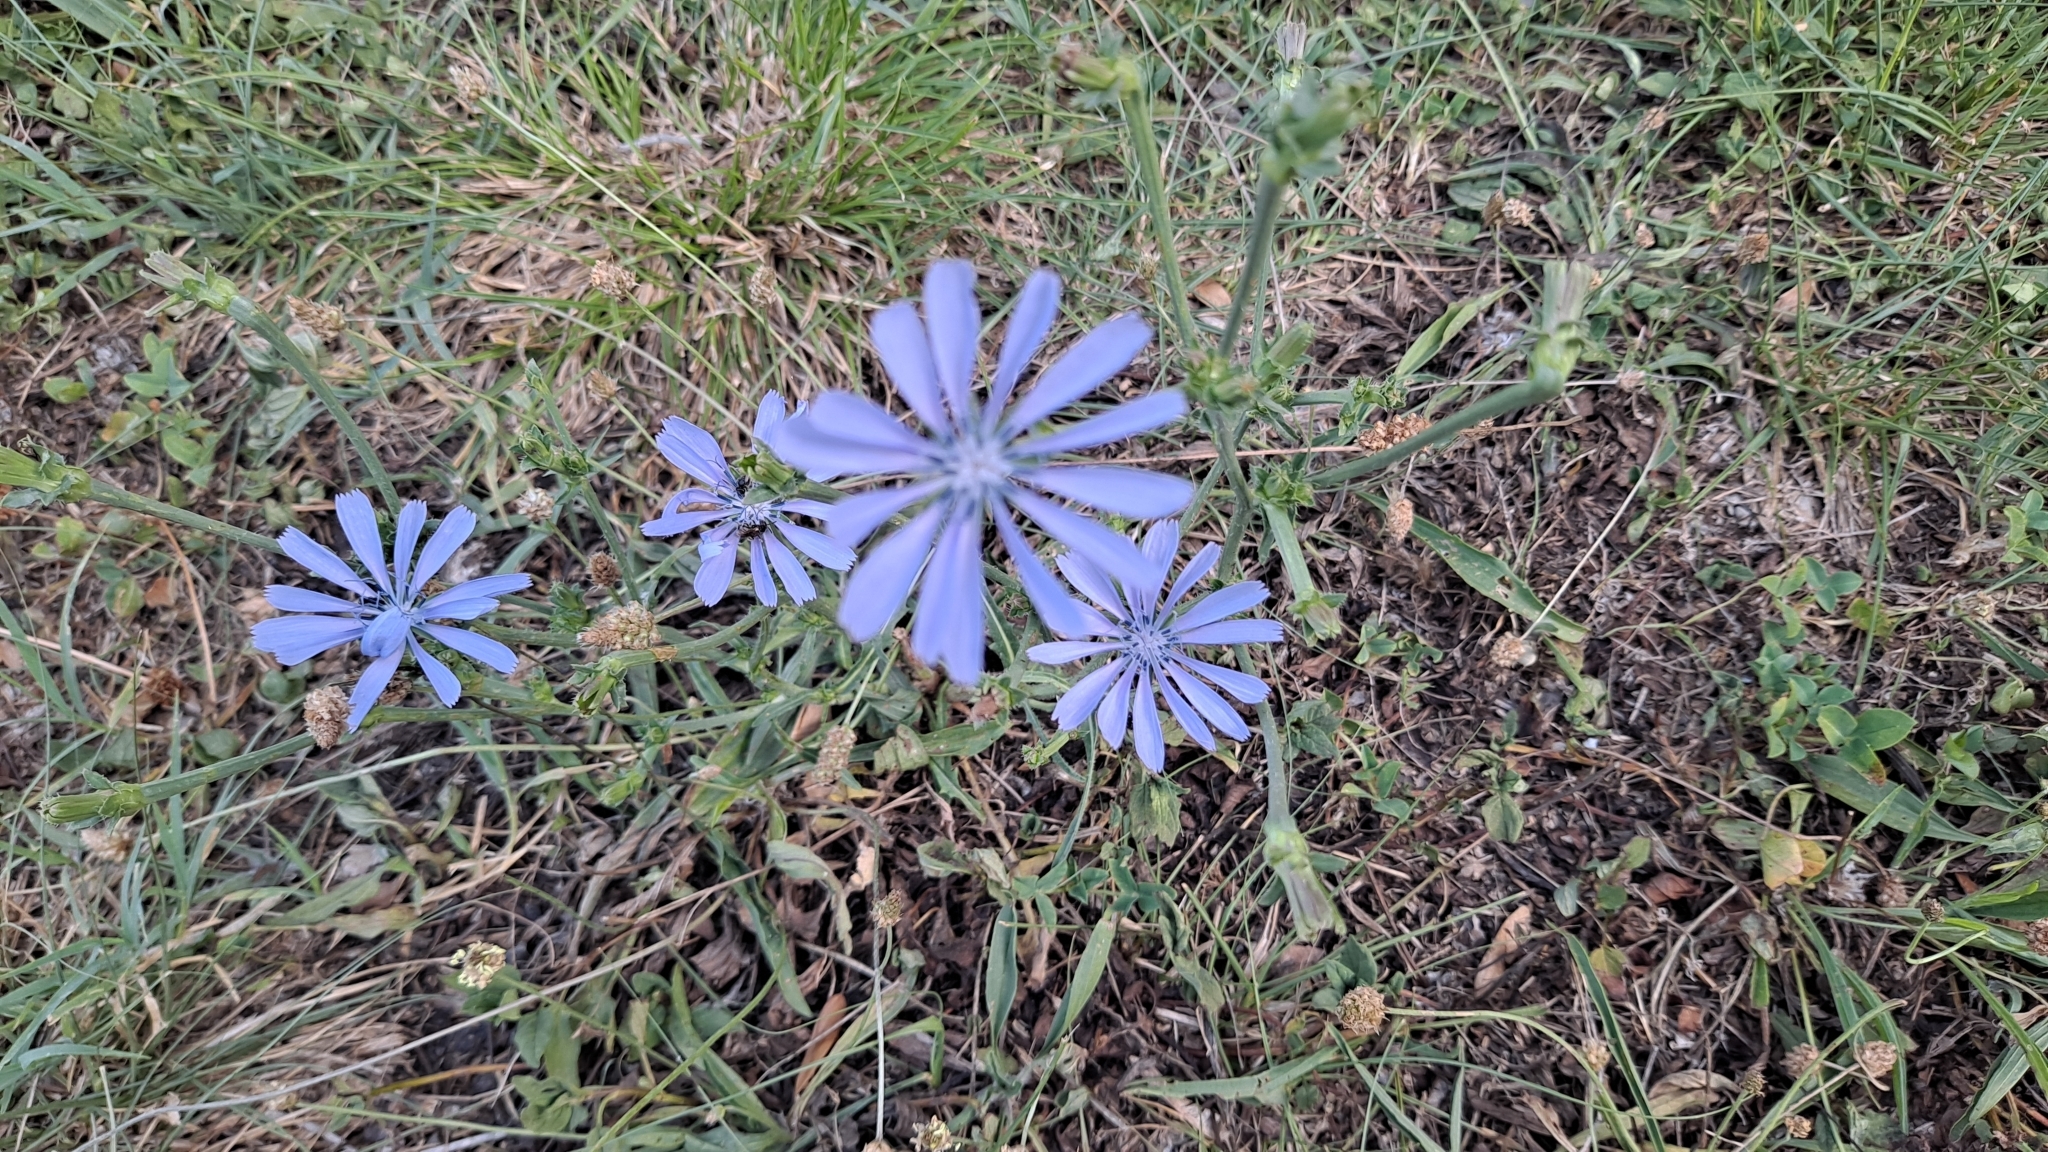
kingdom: Plantae
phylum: Tracheophyta
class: Magnoliopsida
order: Asterales
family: Asteraceae
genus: Cichorium
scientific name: Cichorium intybus
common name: Chicory
